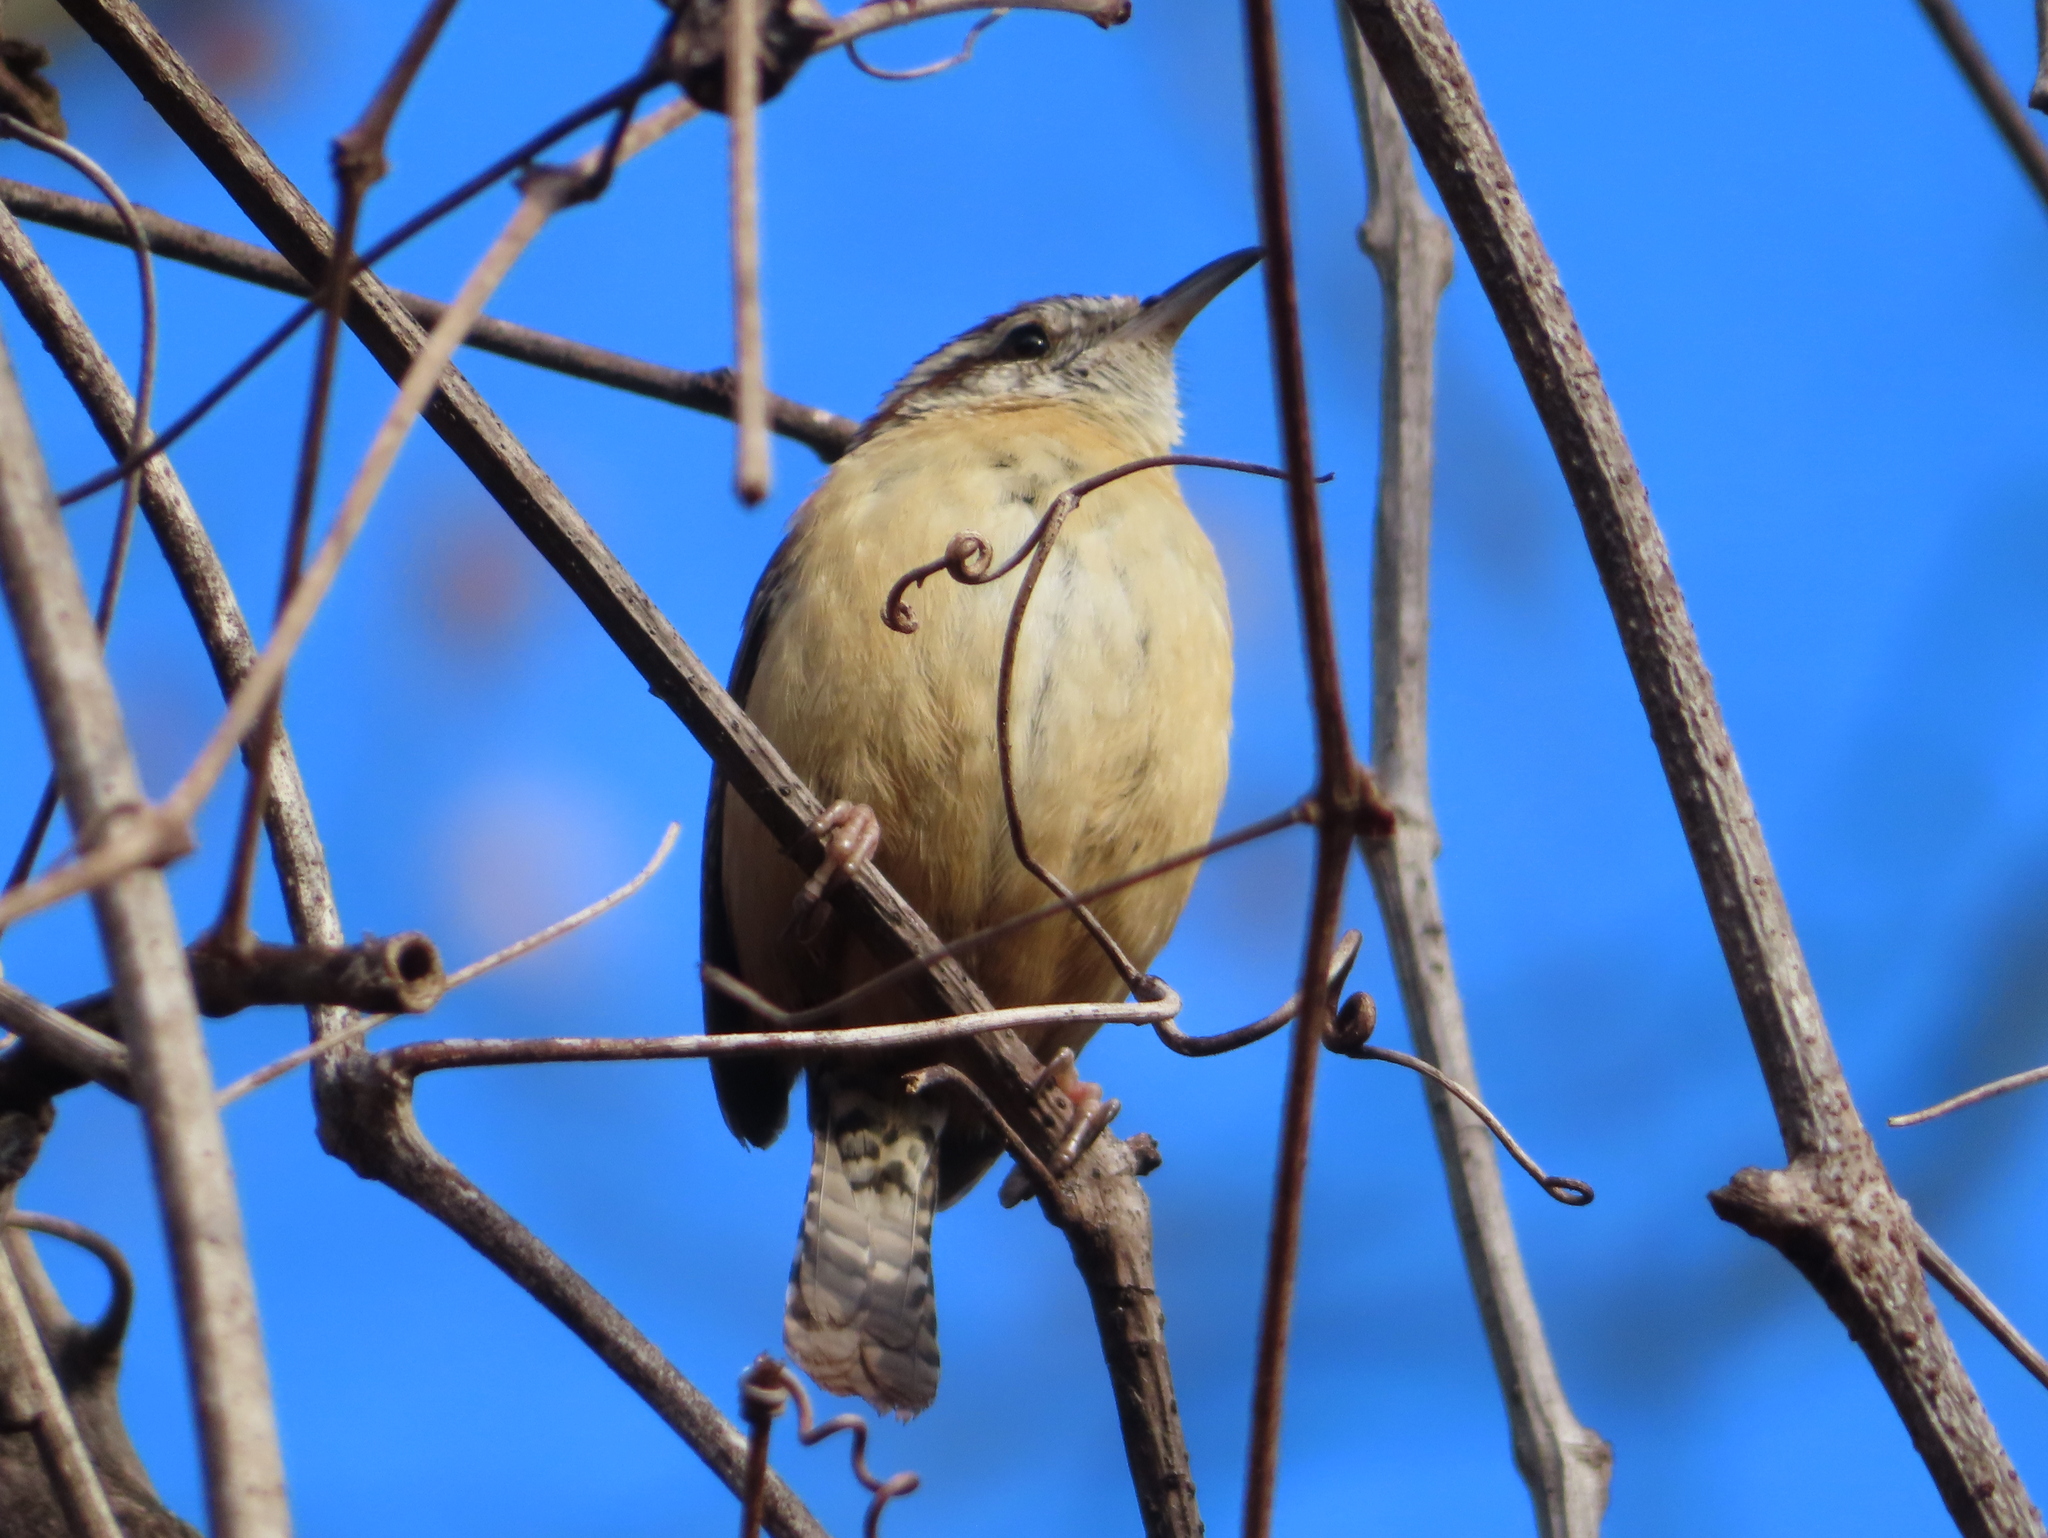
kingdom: Animalia
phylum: Chordata
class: Aves
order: Passeriformes
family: Troglodytidae
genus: Thryothorus
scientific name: Thryothorus ludovicianus
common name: Carolina wren
